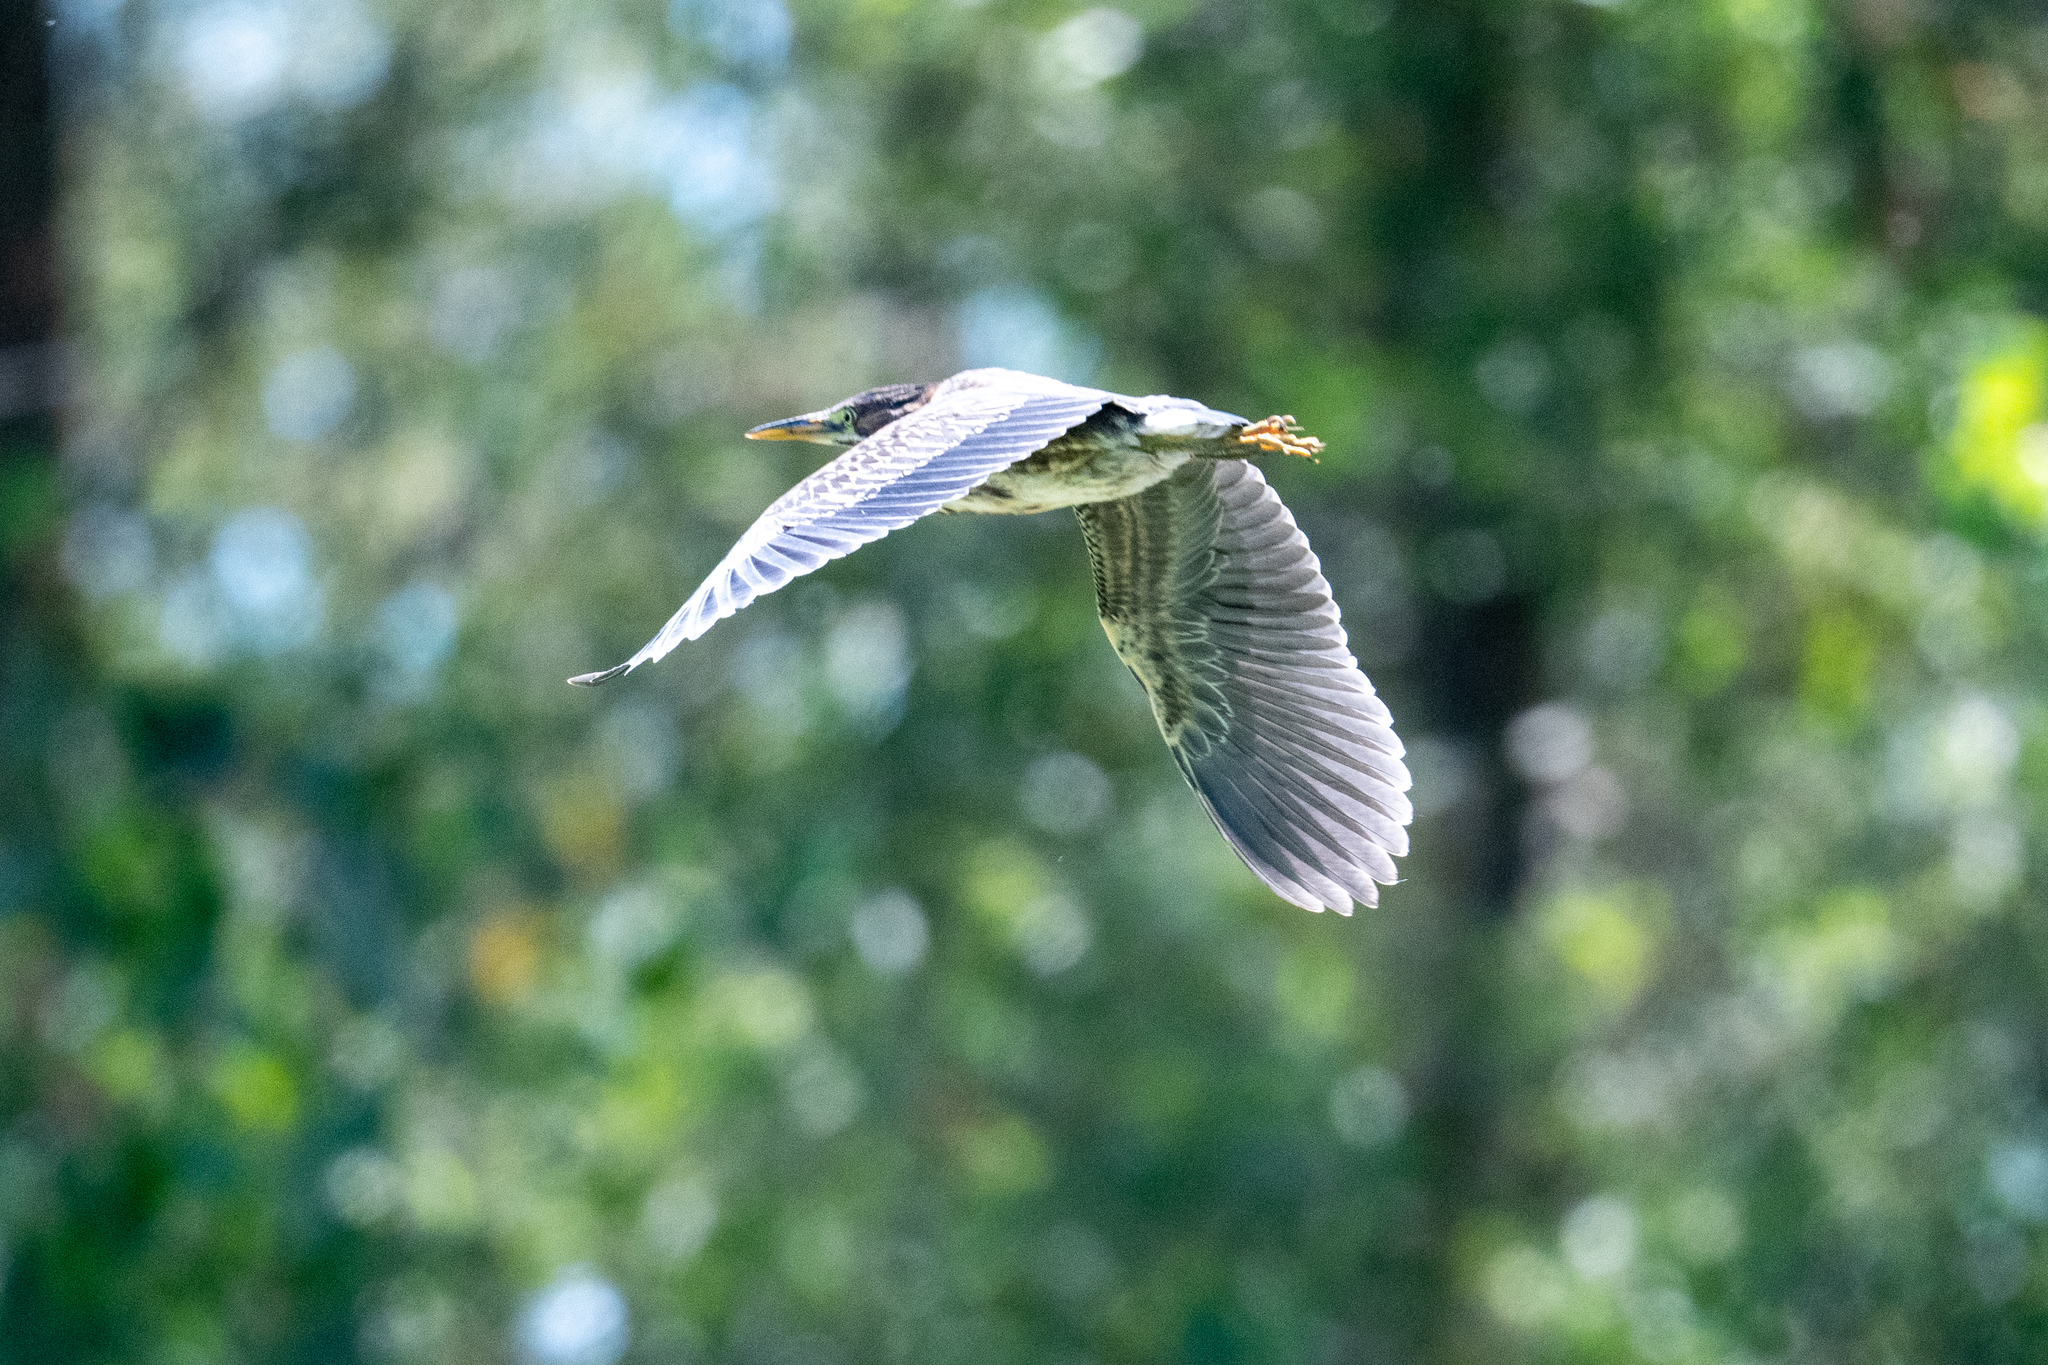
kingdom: Animalia
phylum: Chordata
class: Aves
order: Pelecaniformes
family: Ardeidae
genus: Butorides
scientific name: Butorides virescens
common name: Green heron
